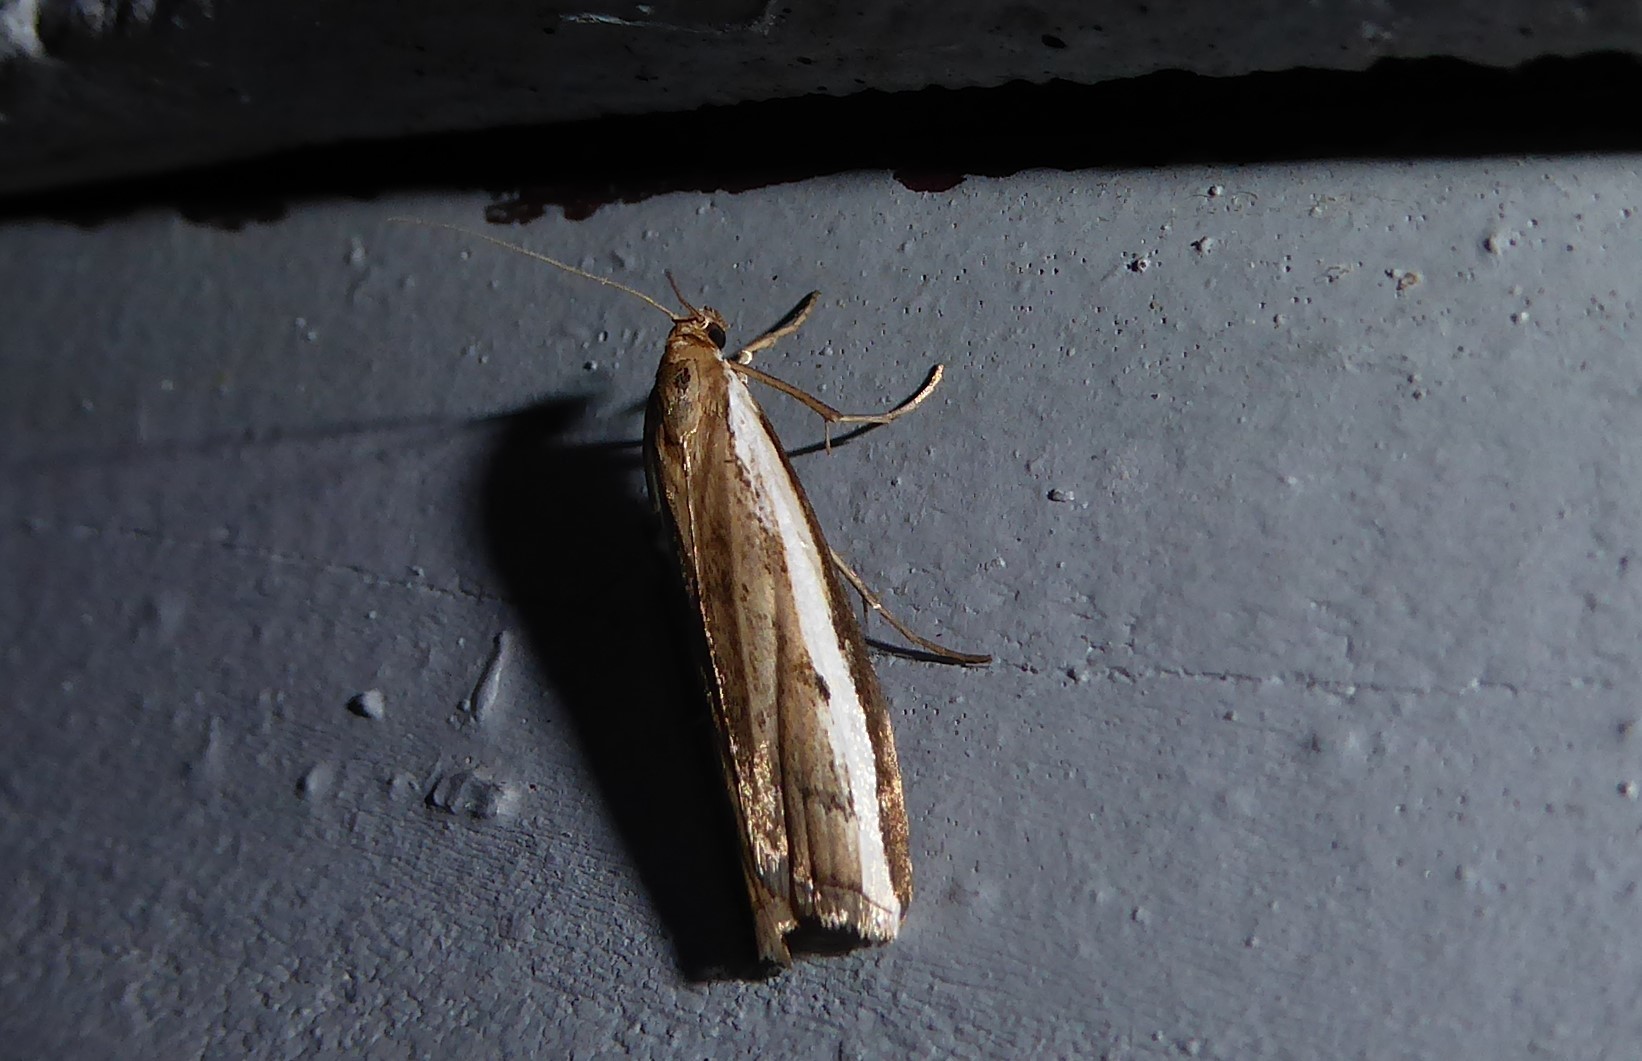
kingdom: Animalia
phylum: Arthropoda
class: Insecta
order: Lepidoptera
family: Crambidae
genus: Orocrambus
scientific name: Orocrambus flexuosellus
